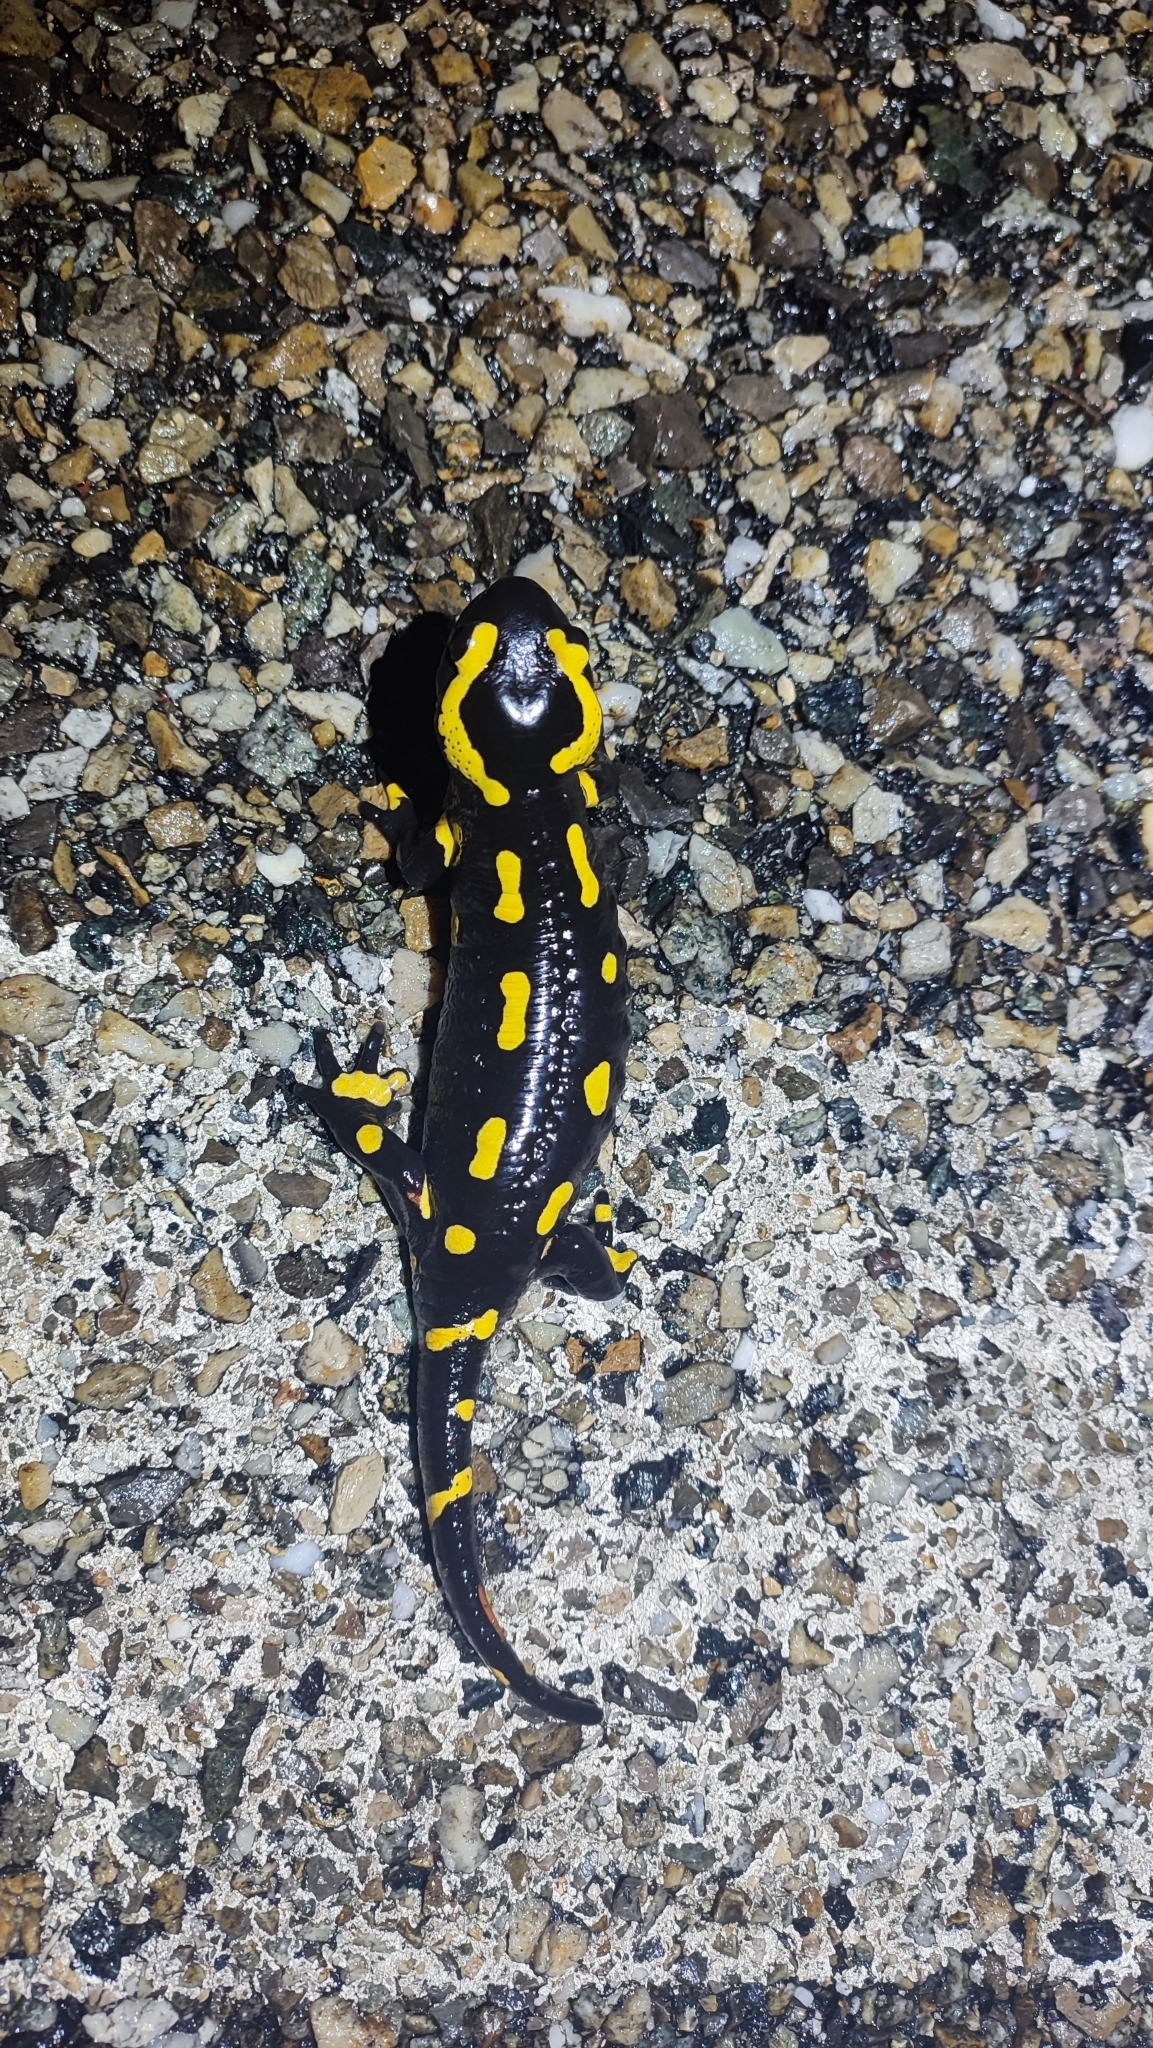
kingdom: Animalia
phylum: Chordata
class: Amphibia
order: Caudata
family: Salamandridae
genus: Salamandra
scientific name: Salamandra salamandra
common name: Fire salamander
